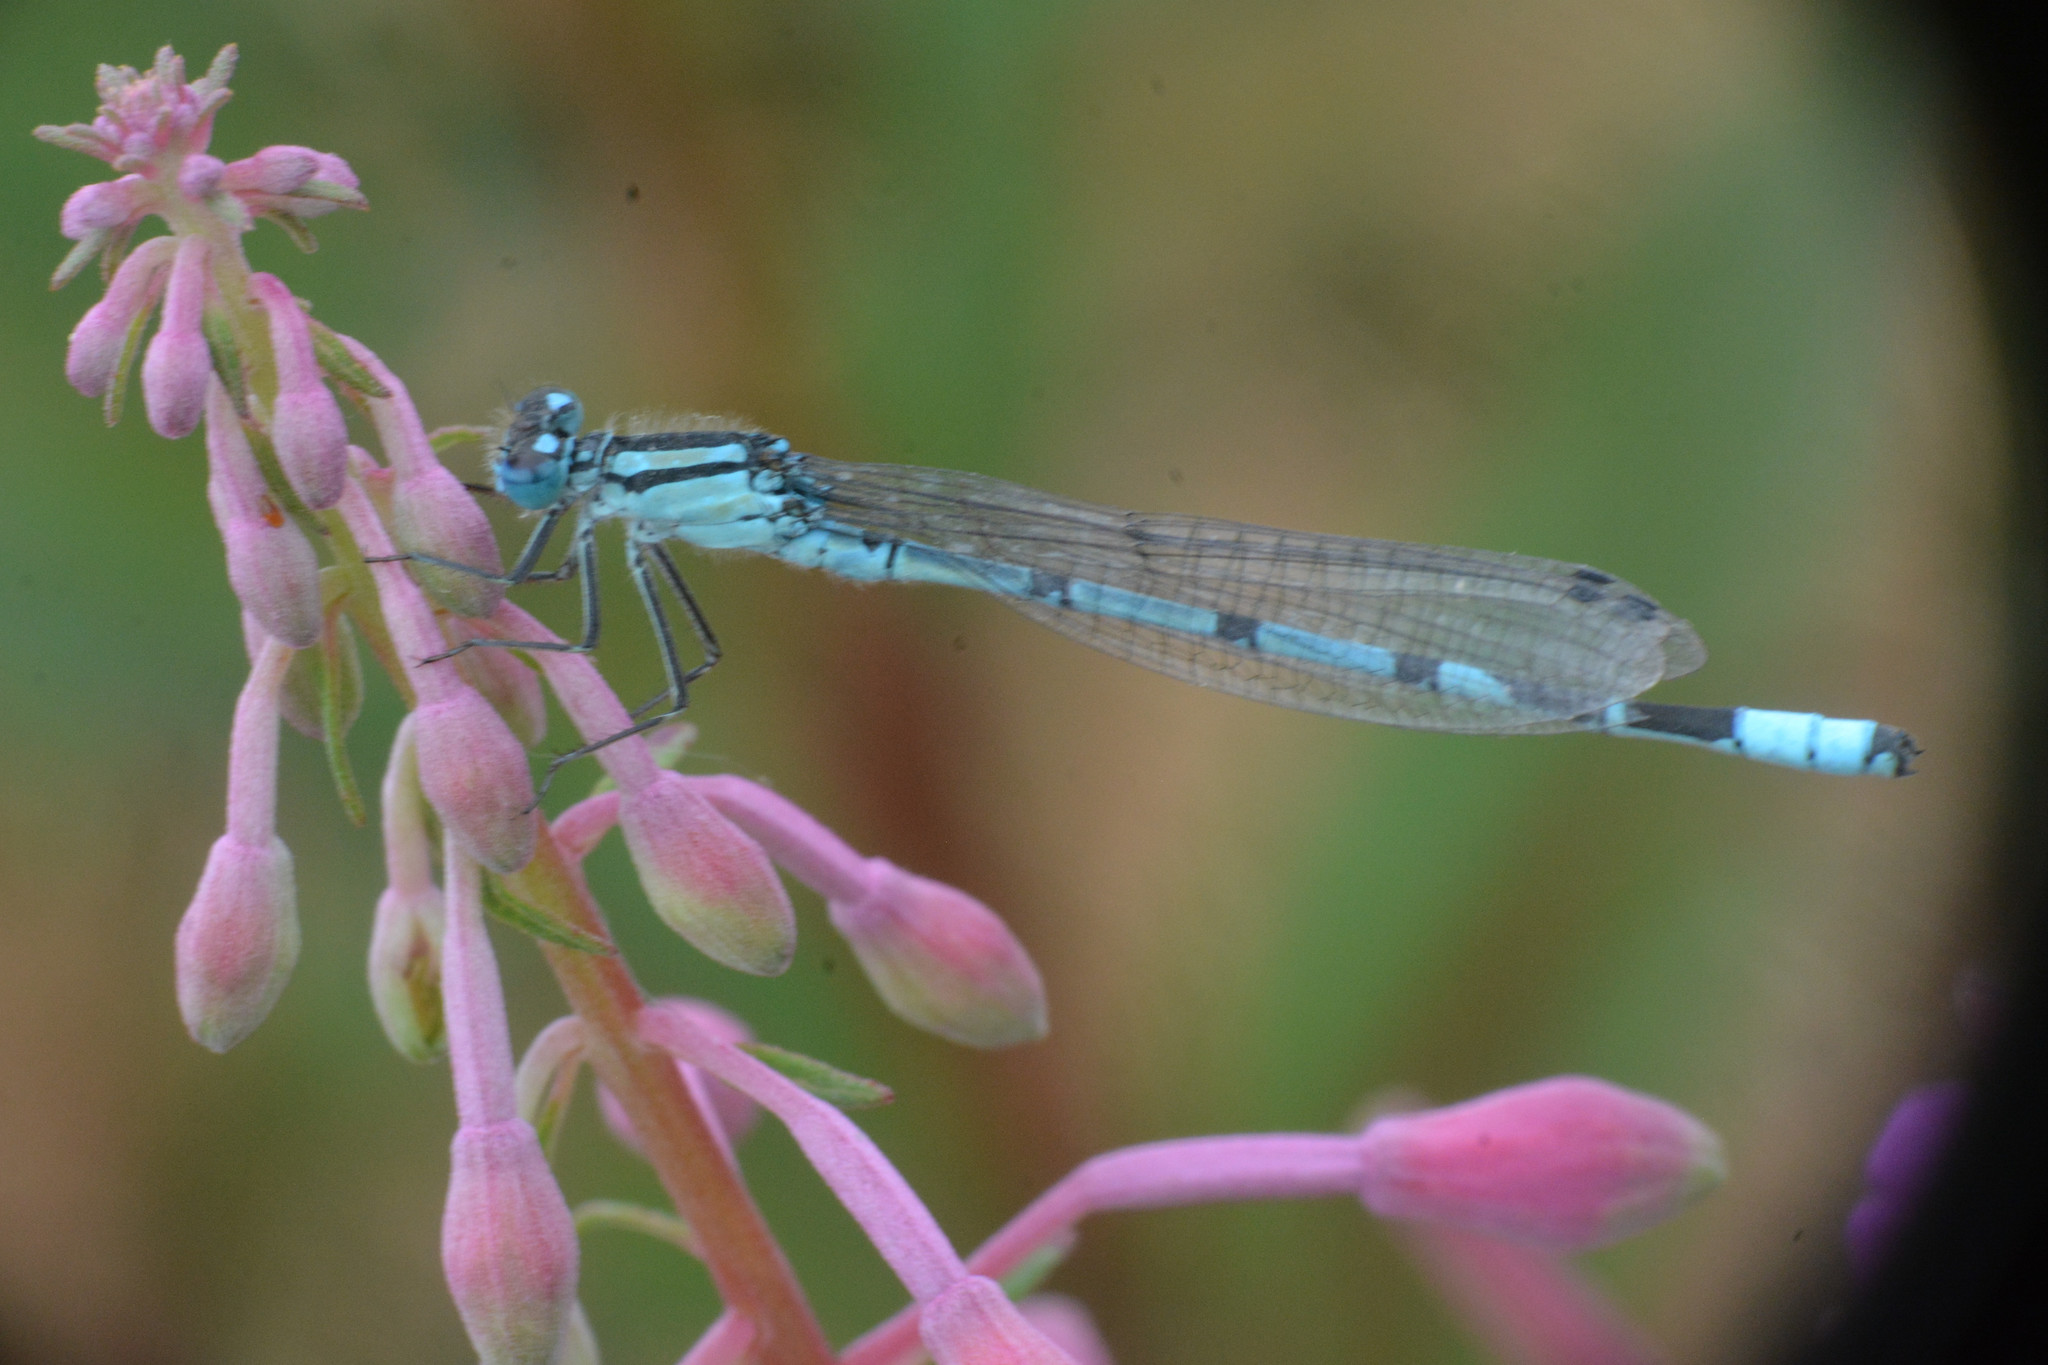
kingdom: Animalia
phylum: Arthropoda
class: Insecta
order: Odonata
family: Coenagrionidae
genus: Enallagma
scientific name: Enallagma cyathigerum
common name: Common blue damselfly
